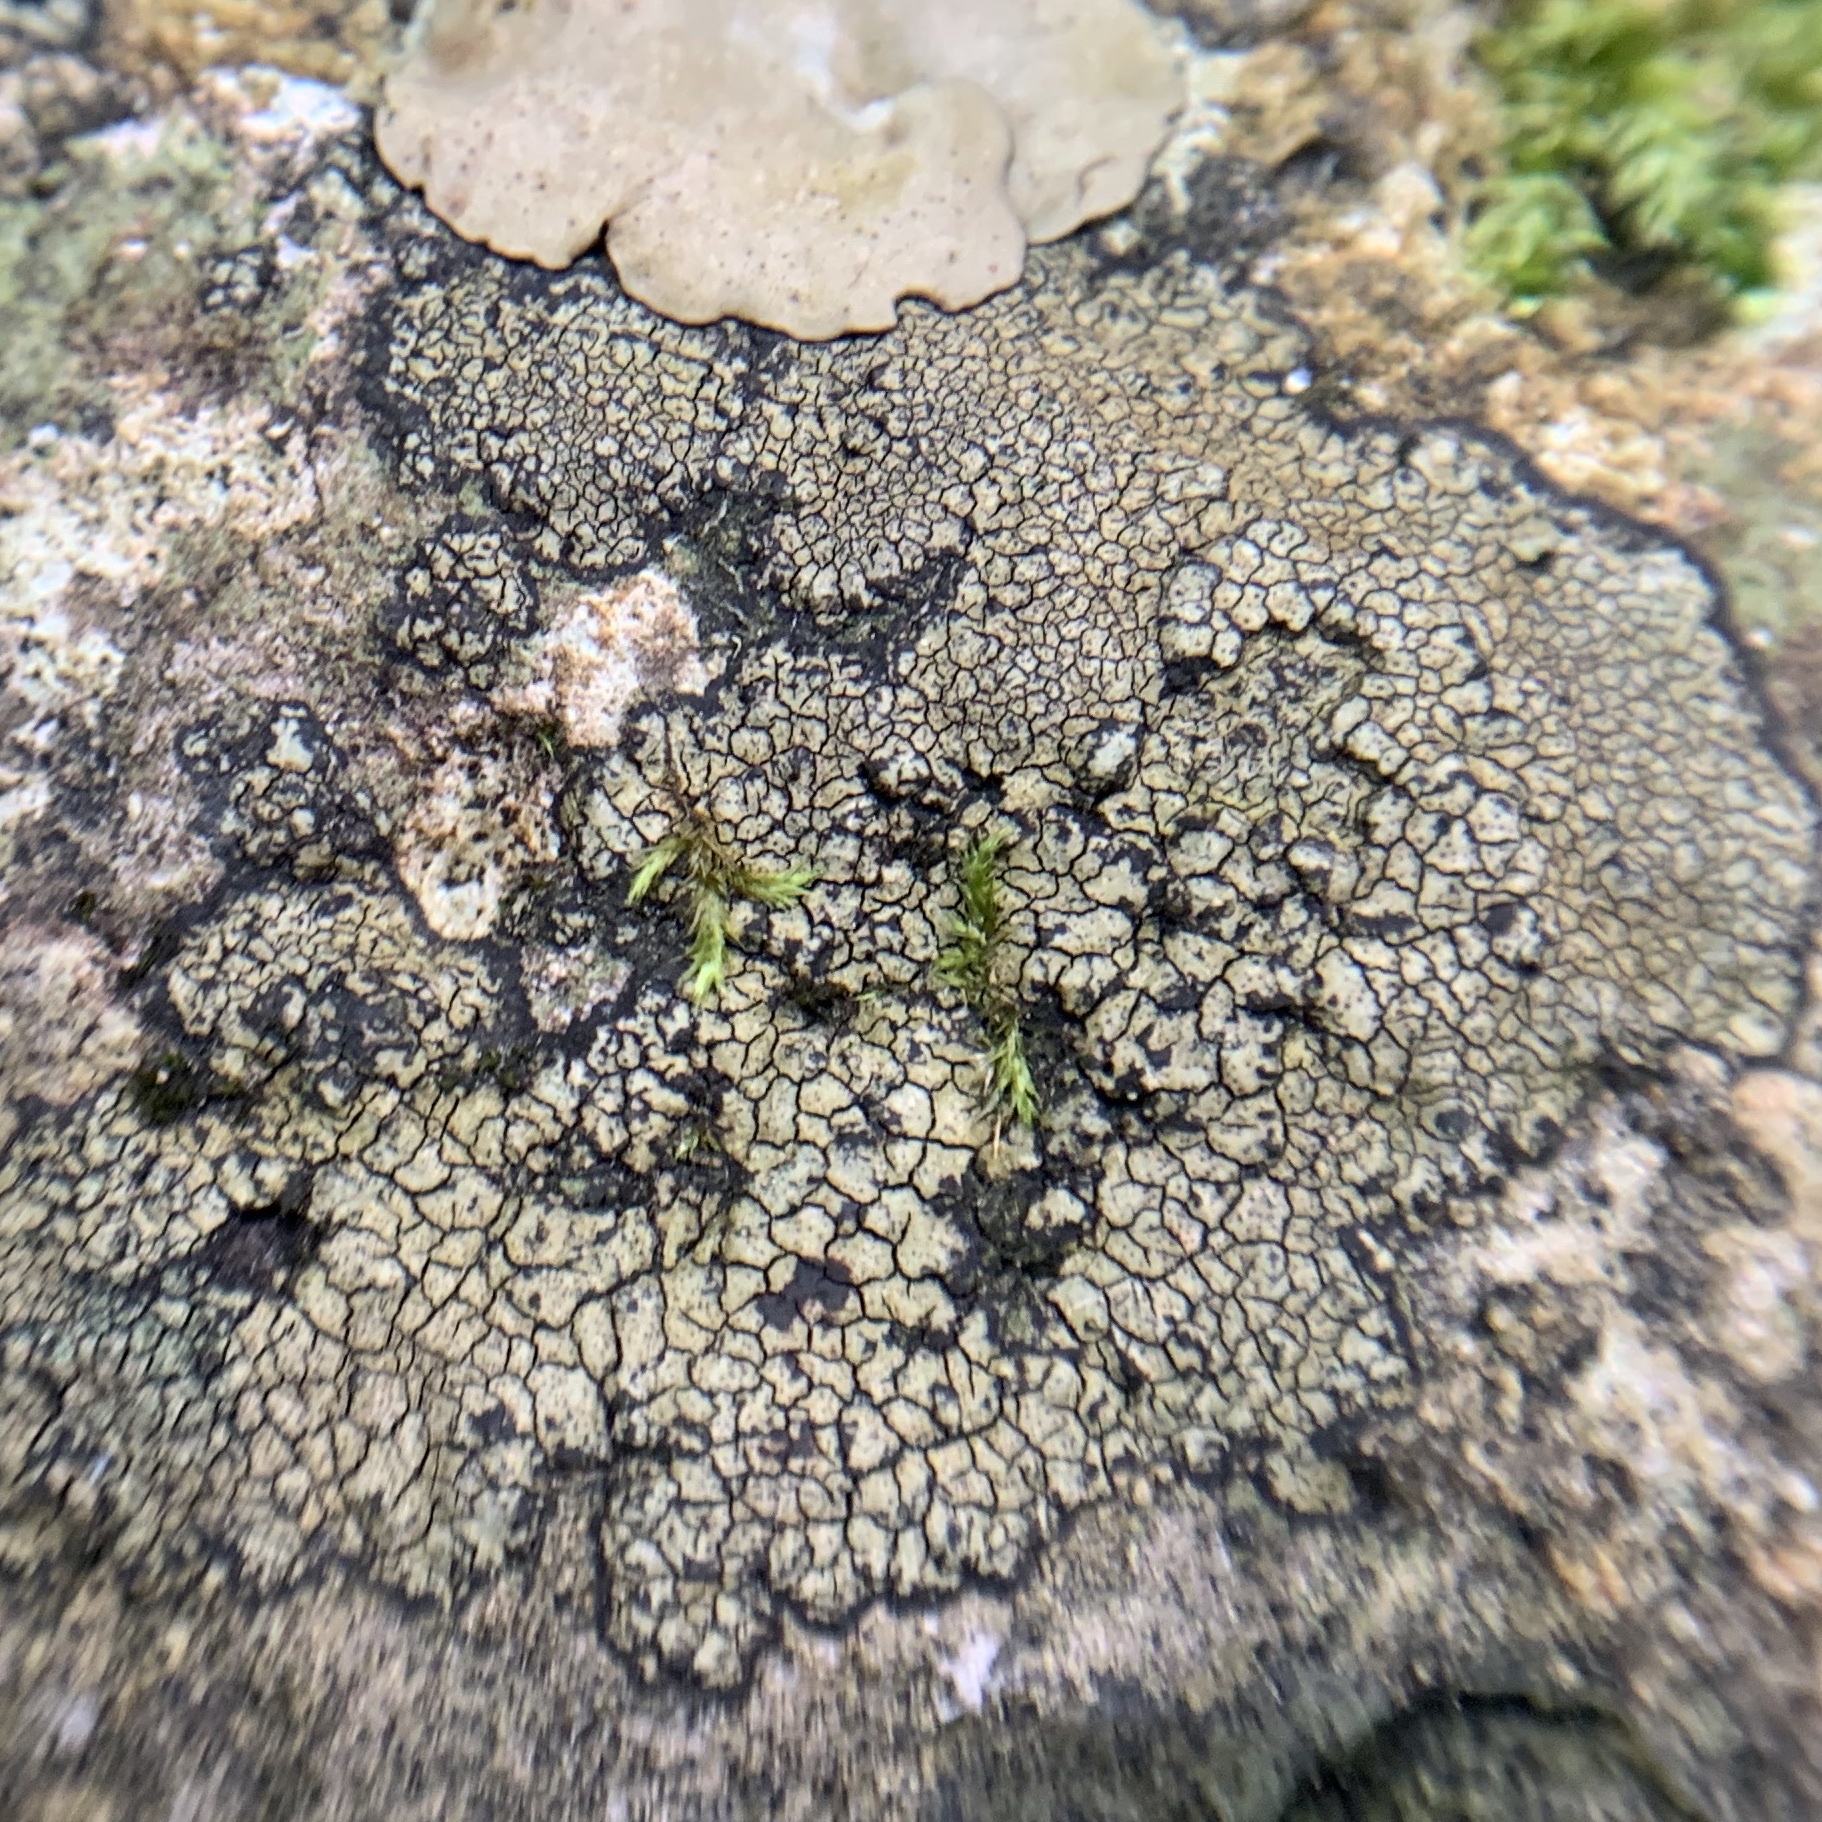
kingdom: Fungi
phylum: Ascomycota
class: Eurotiomycetes
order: Verrucariales
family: Verrucariaceae
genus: Willeya
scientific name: Willeya diffractella
